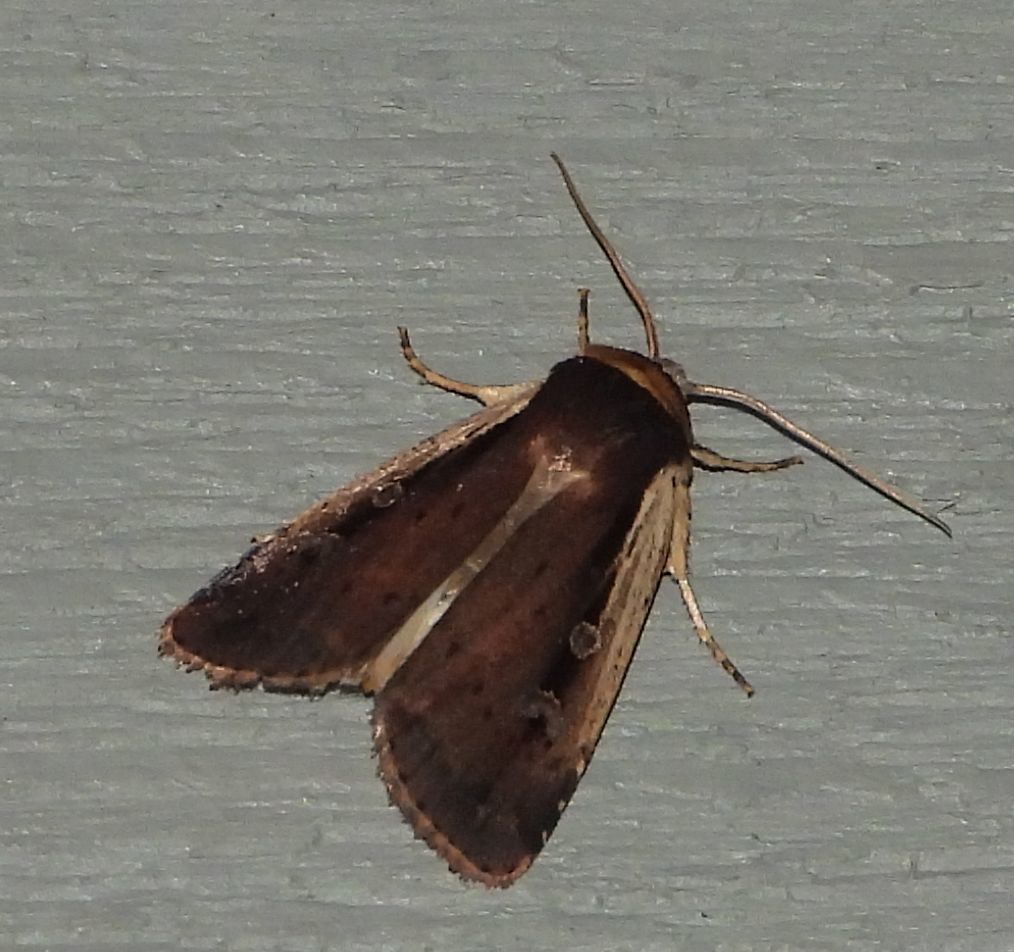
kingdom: Animalia
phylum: Arthropoda
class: Insecta
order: Lepidoptera
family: Noctuidae
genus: Ochropleura
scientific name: Ochropleura implecta
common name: Flame-shouldered dart
